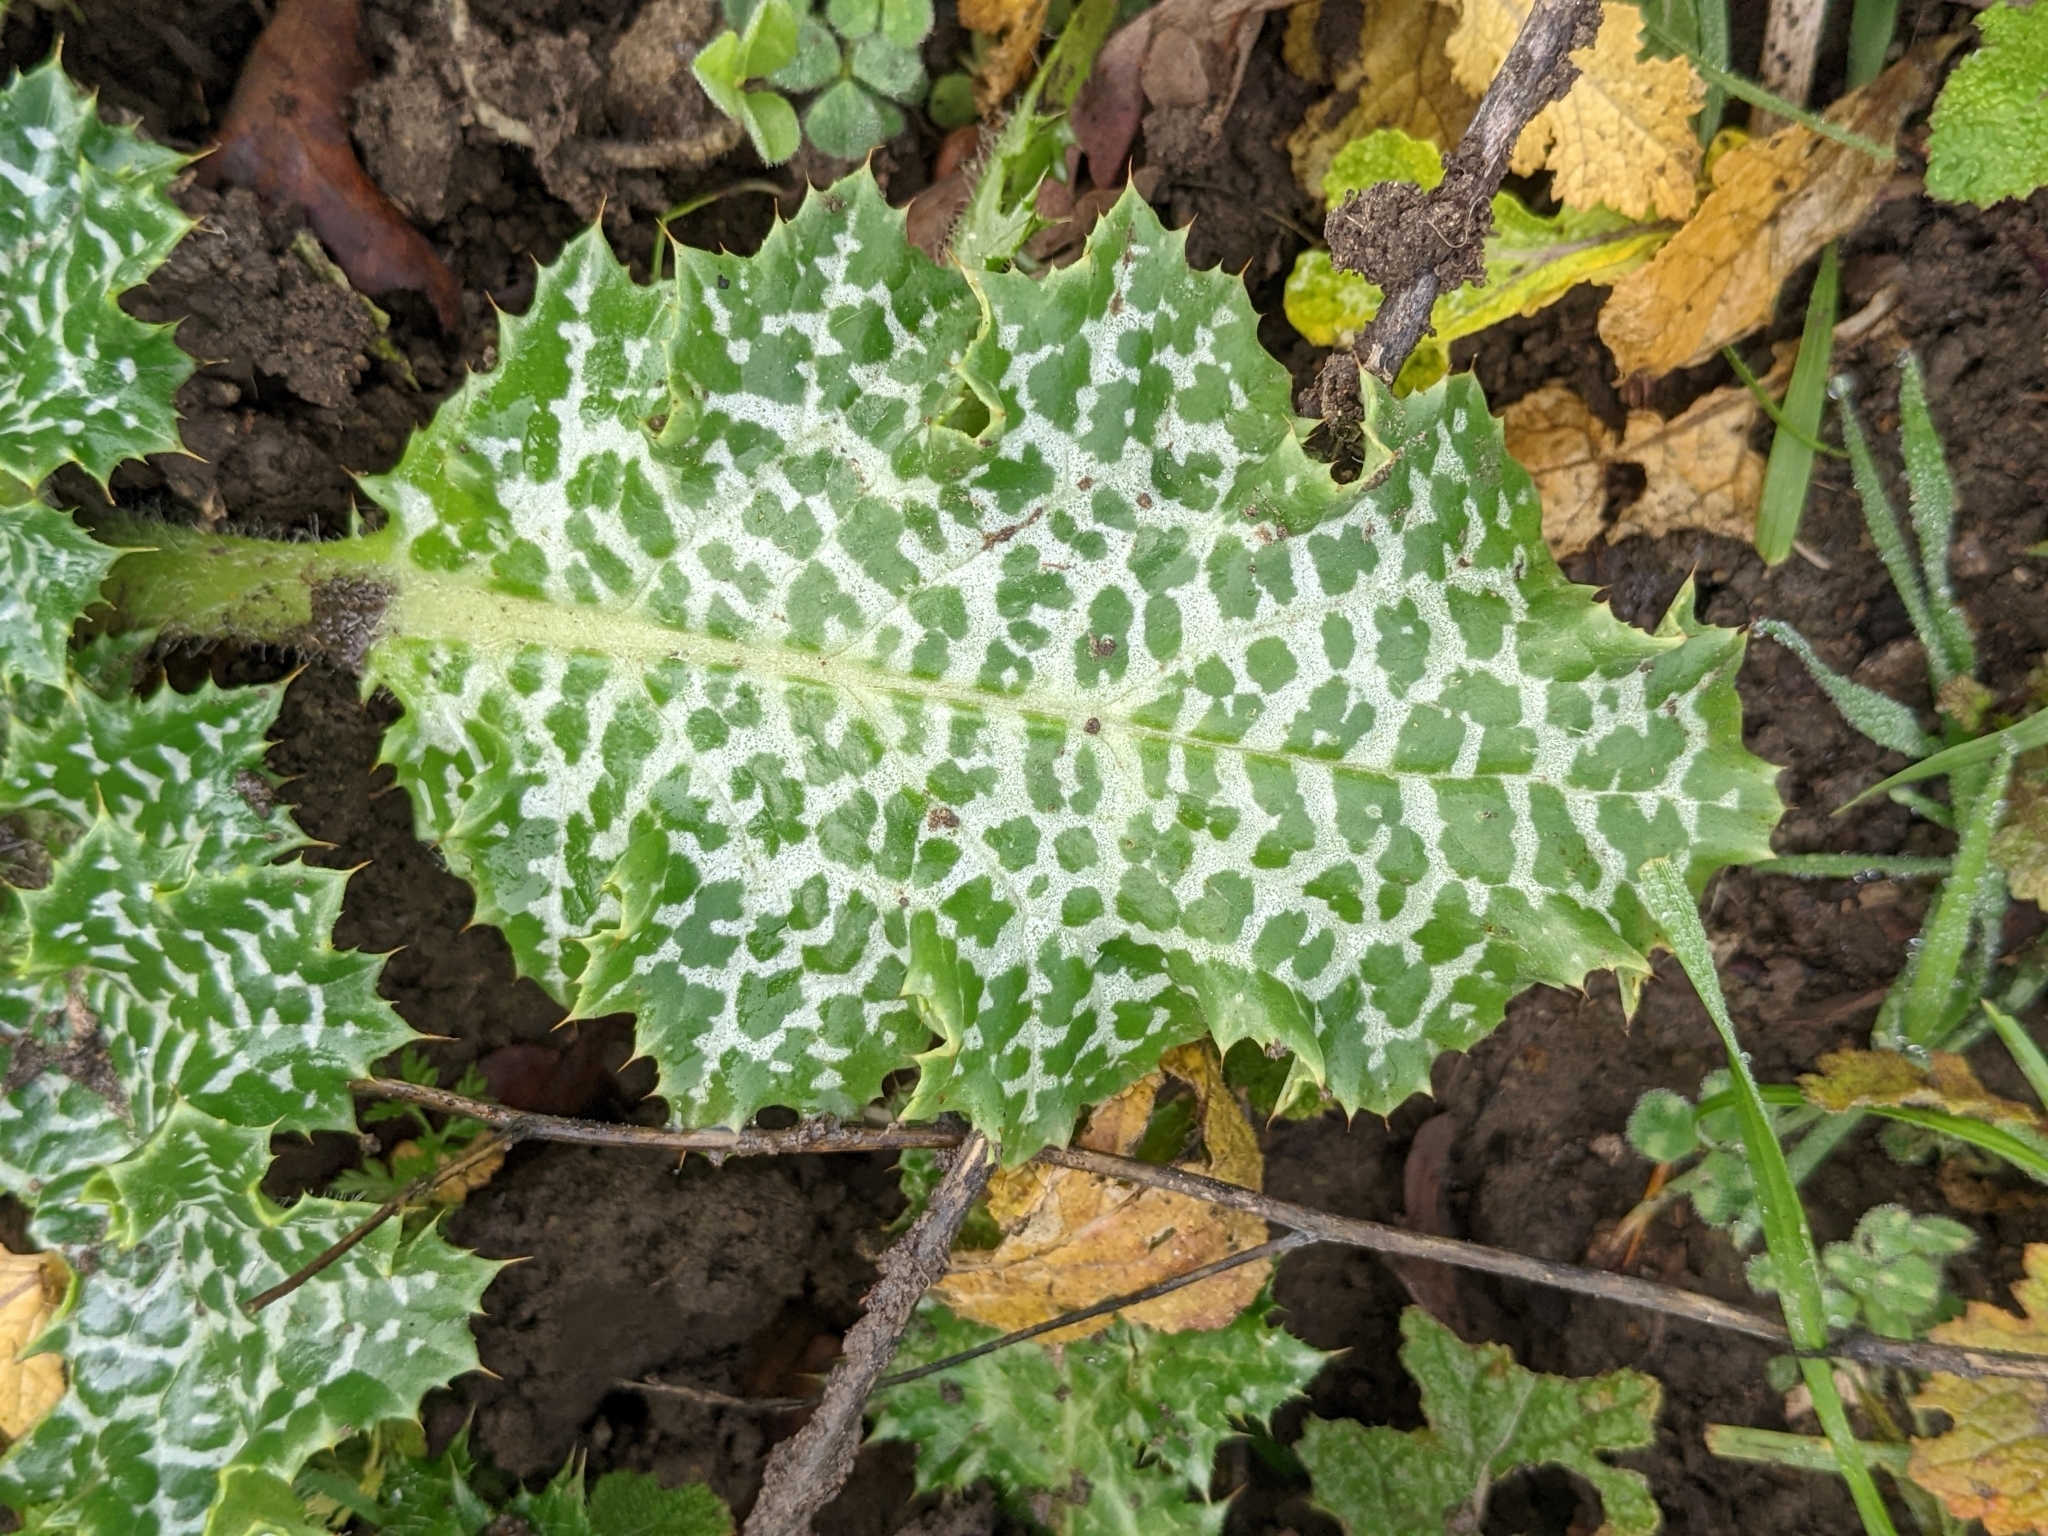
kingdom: Plantae
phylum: Tracheophyta
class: Magnoliopsida
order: Asterales
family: Asteraceae
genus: Silybum
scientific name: Silybum marianum
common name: Milk thistle
